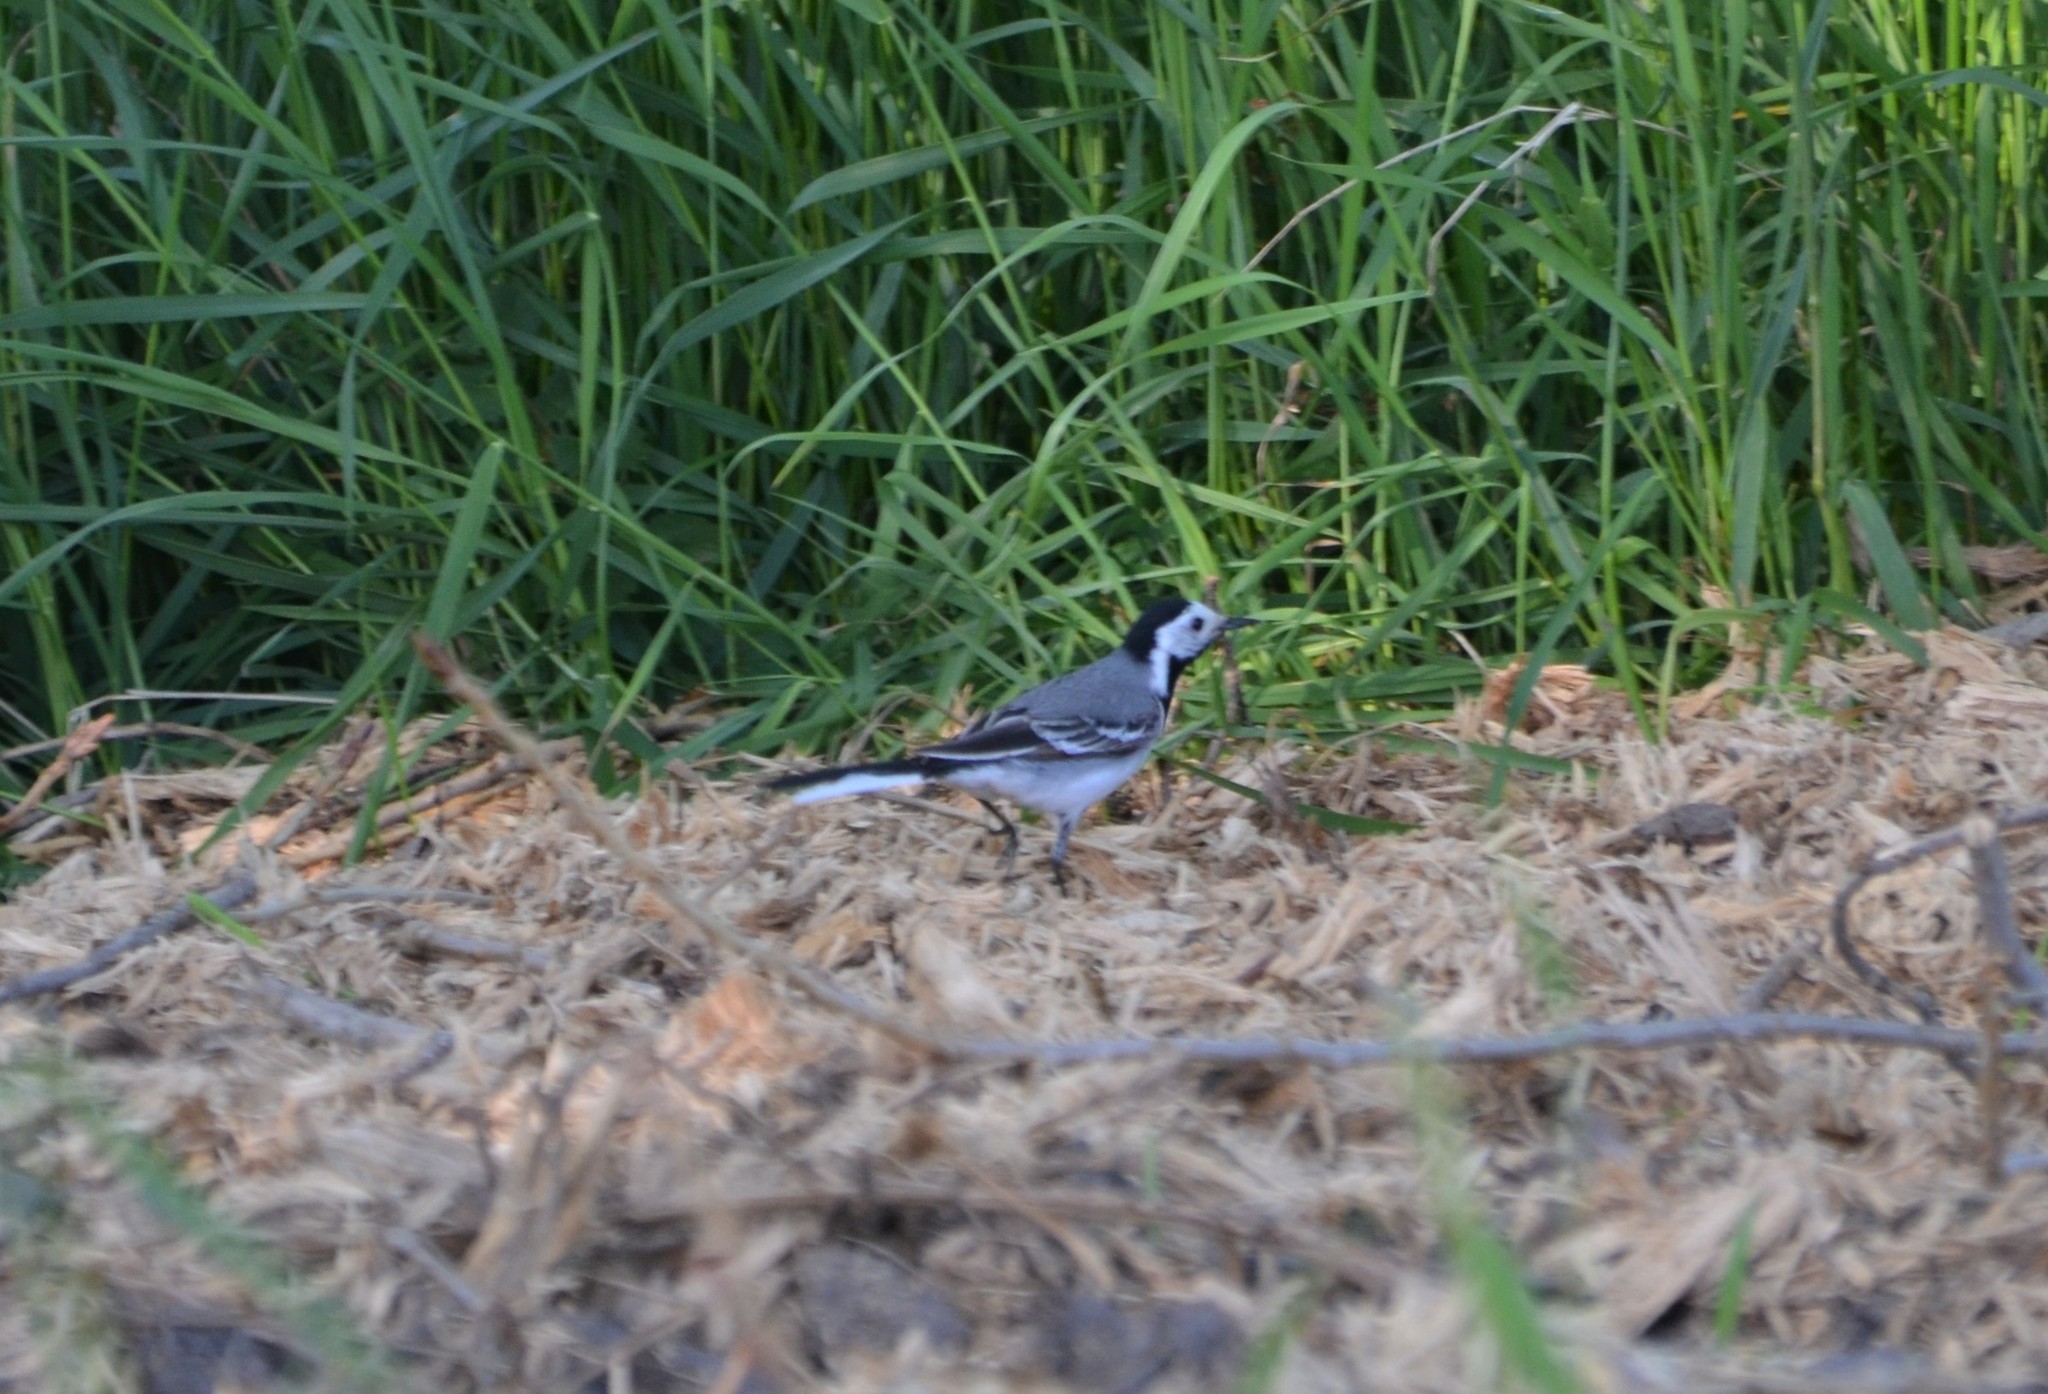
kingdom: Animalia
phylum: Chordata
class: Aves
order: Passeriformes
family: Motacillidae
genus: Motacilla
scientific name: Motacilla alba
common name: White wagtail
